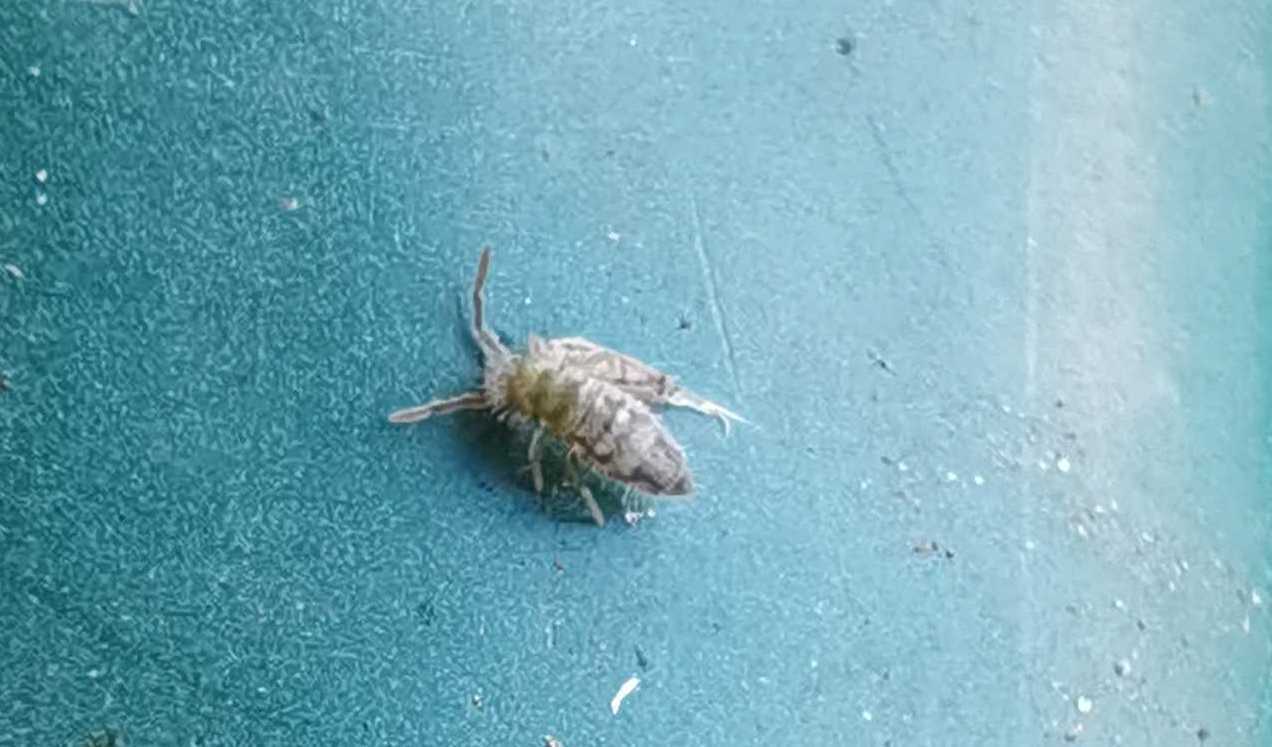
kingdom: Animalia
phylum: Arthropoda
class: Collembola
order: Entomobryomorpha
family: Entomobryidae
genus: Entomobrya
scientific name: Entomobrya nivalis
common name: Cosmopolitan springtail
